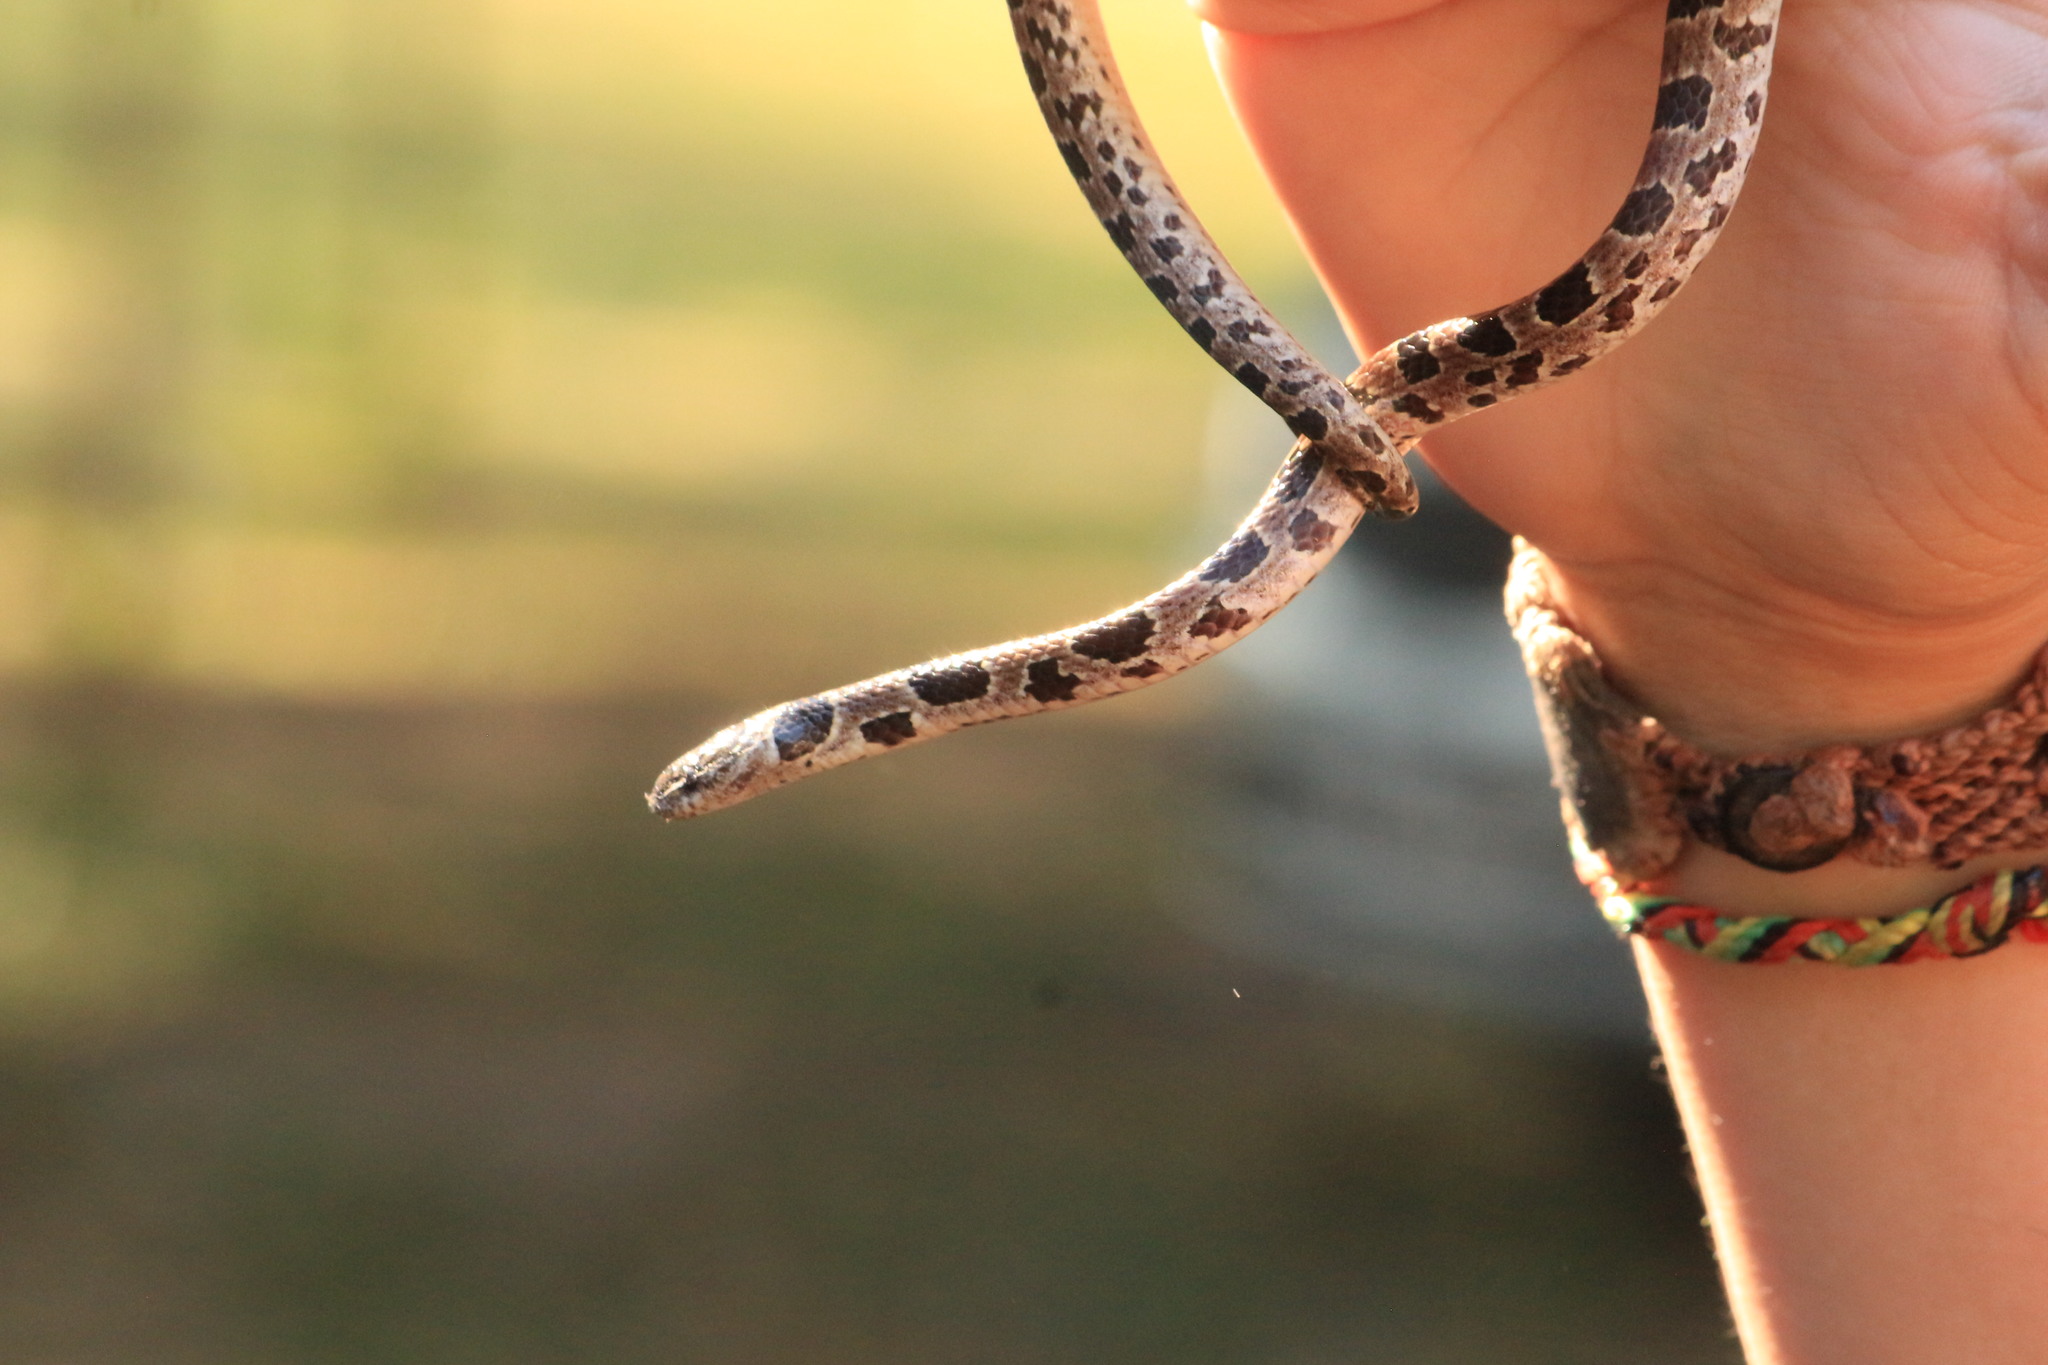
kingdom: Animalia
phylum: Chordata
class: Squamata
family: Colubridae
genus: Dipsas
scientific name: Dipsas turgida
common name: Bolivian tree snake
